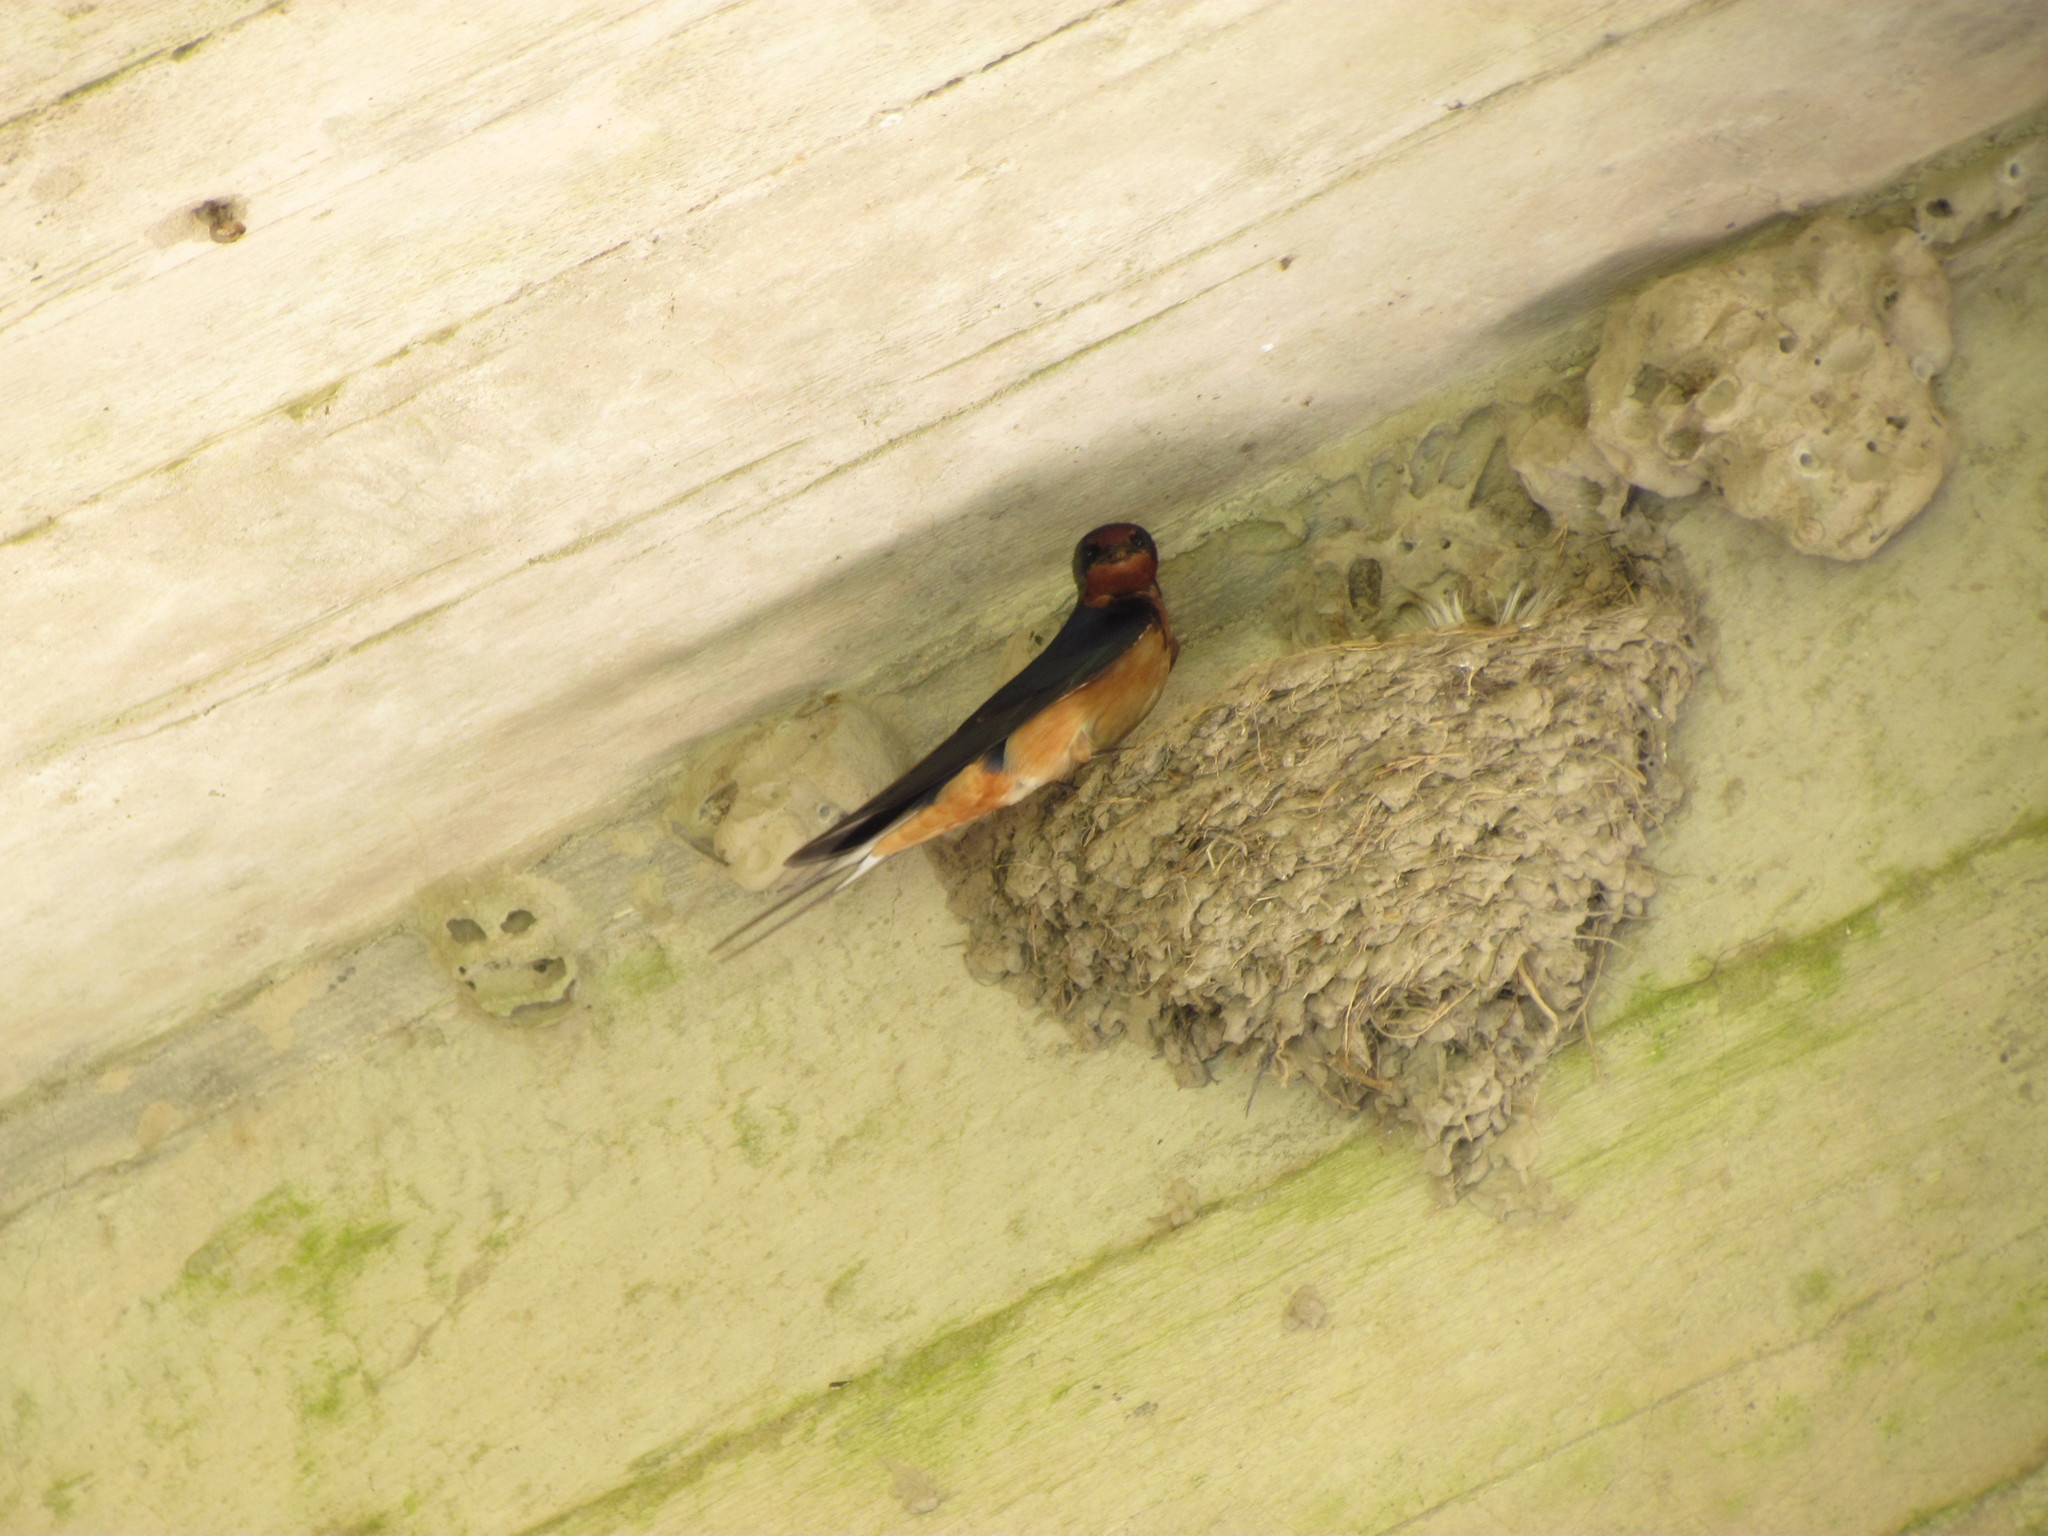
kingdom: Animalia
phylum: Chordata
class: Aves
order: Passeriformes
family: Hirundinidae
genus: Hirundo
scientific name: Hirundo rustica
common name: Barn swallow
